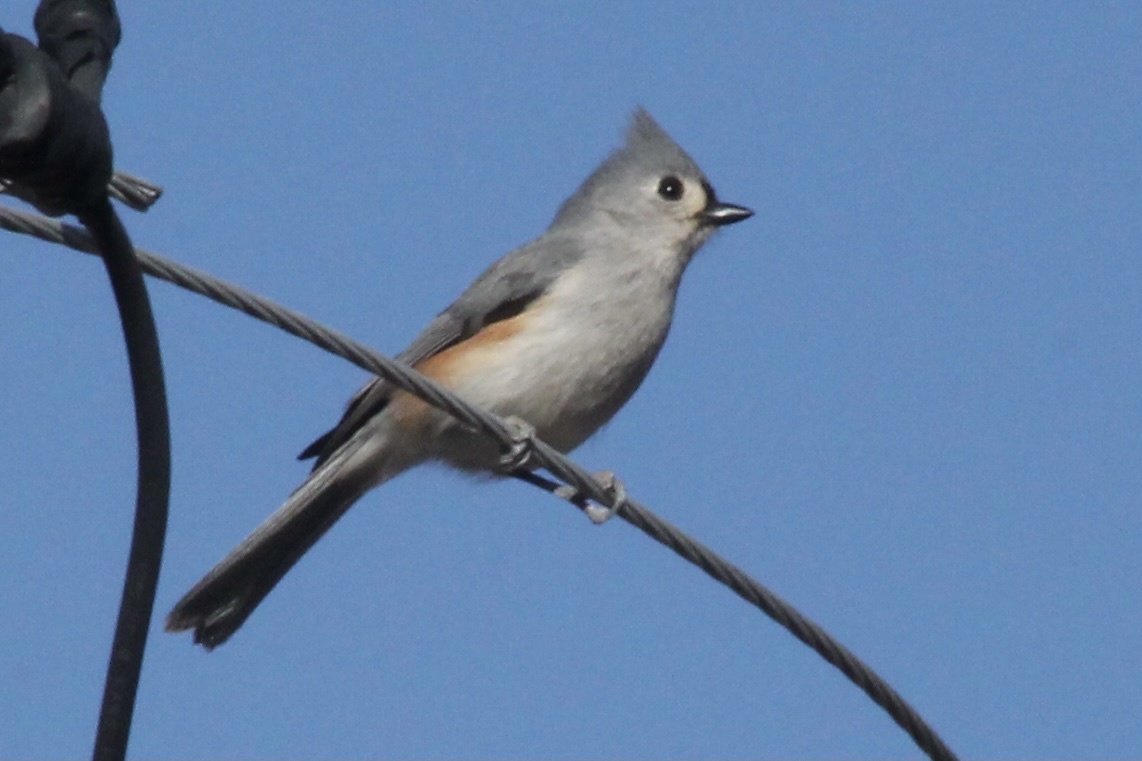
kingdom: Animalia
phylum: Chordata
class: Aves
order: Passeriformes
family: Paridae
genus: Baeolophus
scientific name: Baeolophus bicolor
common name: Tufted titmouse
